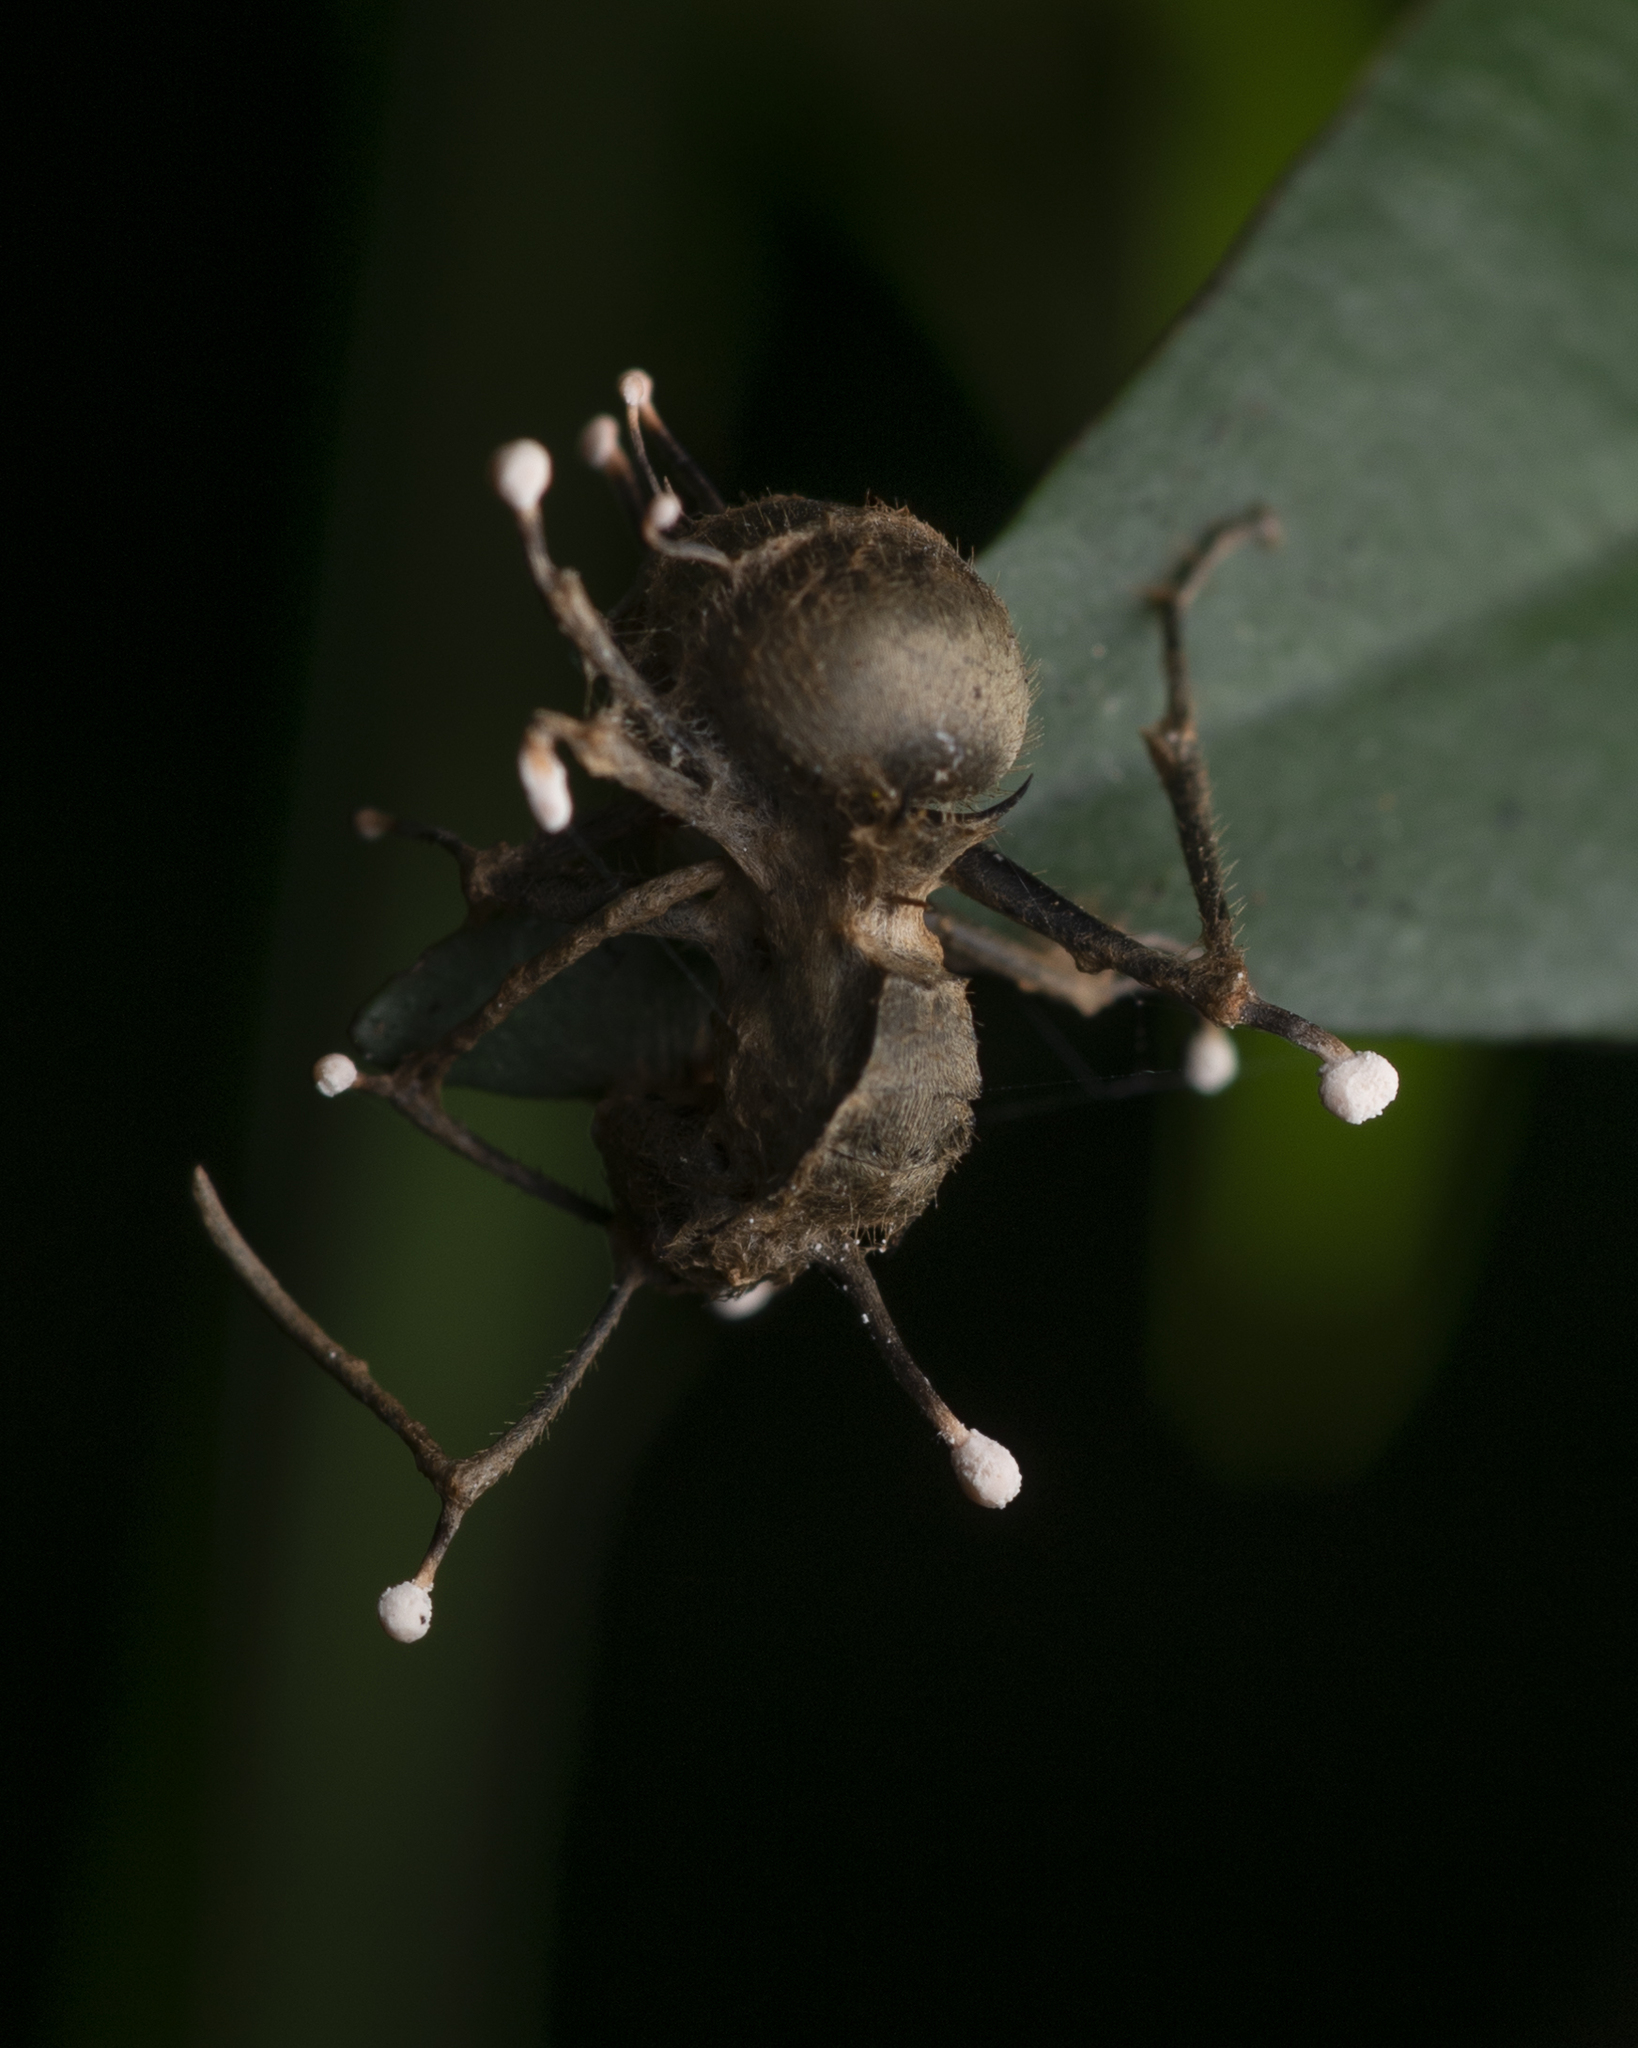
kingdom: Fungi
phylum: Ascomycota
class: Sordariomycetes
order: Hypocreales
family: Ophiocordycipitaceae
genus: Ophiocordyceps
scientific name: Ophiocordyceps buquetii
